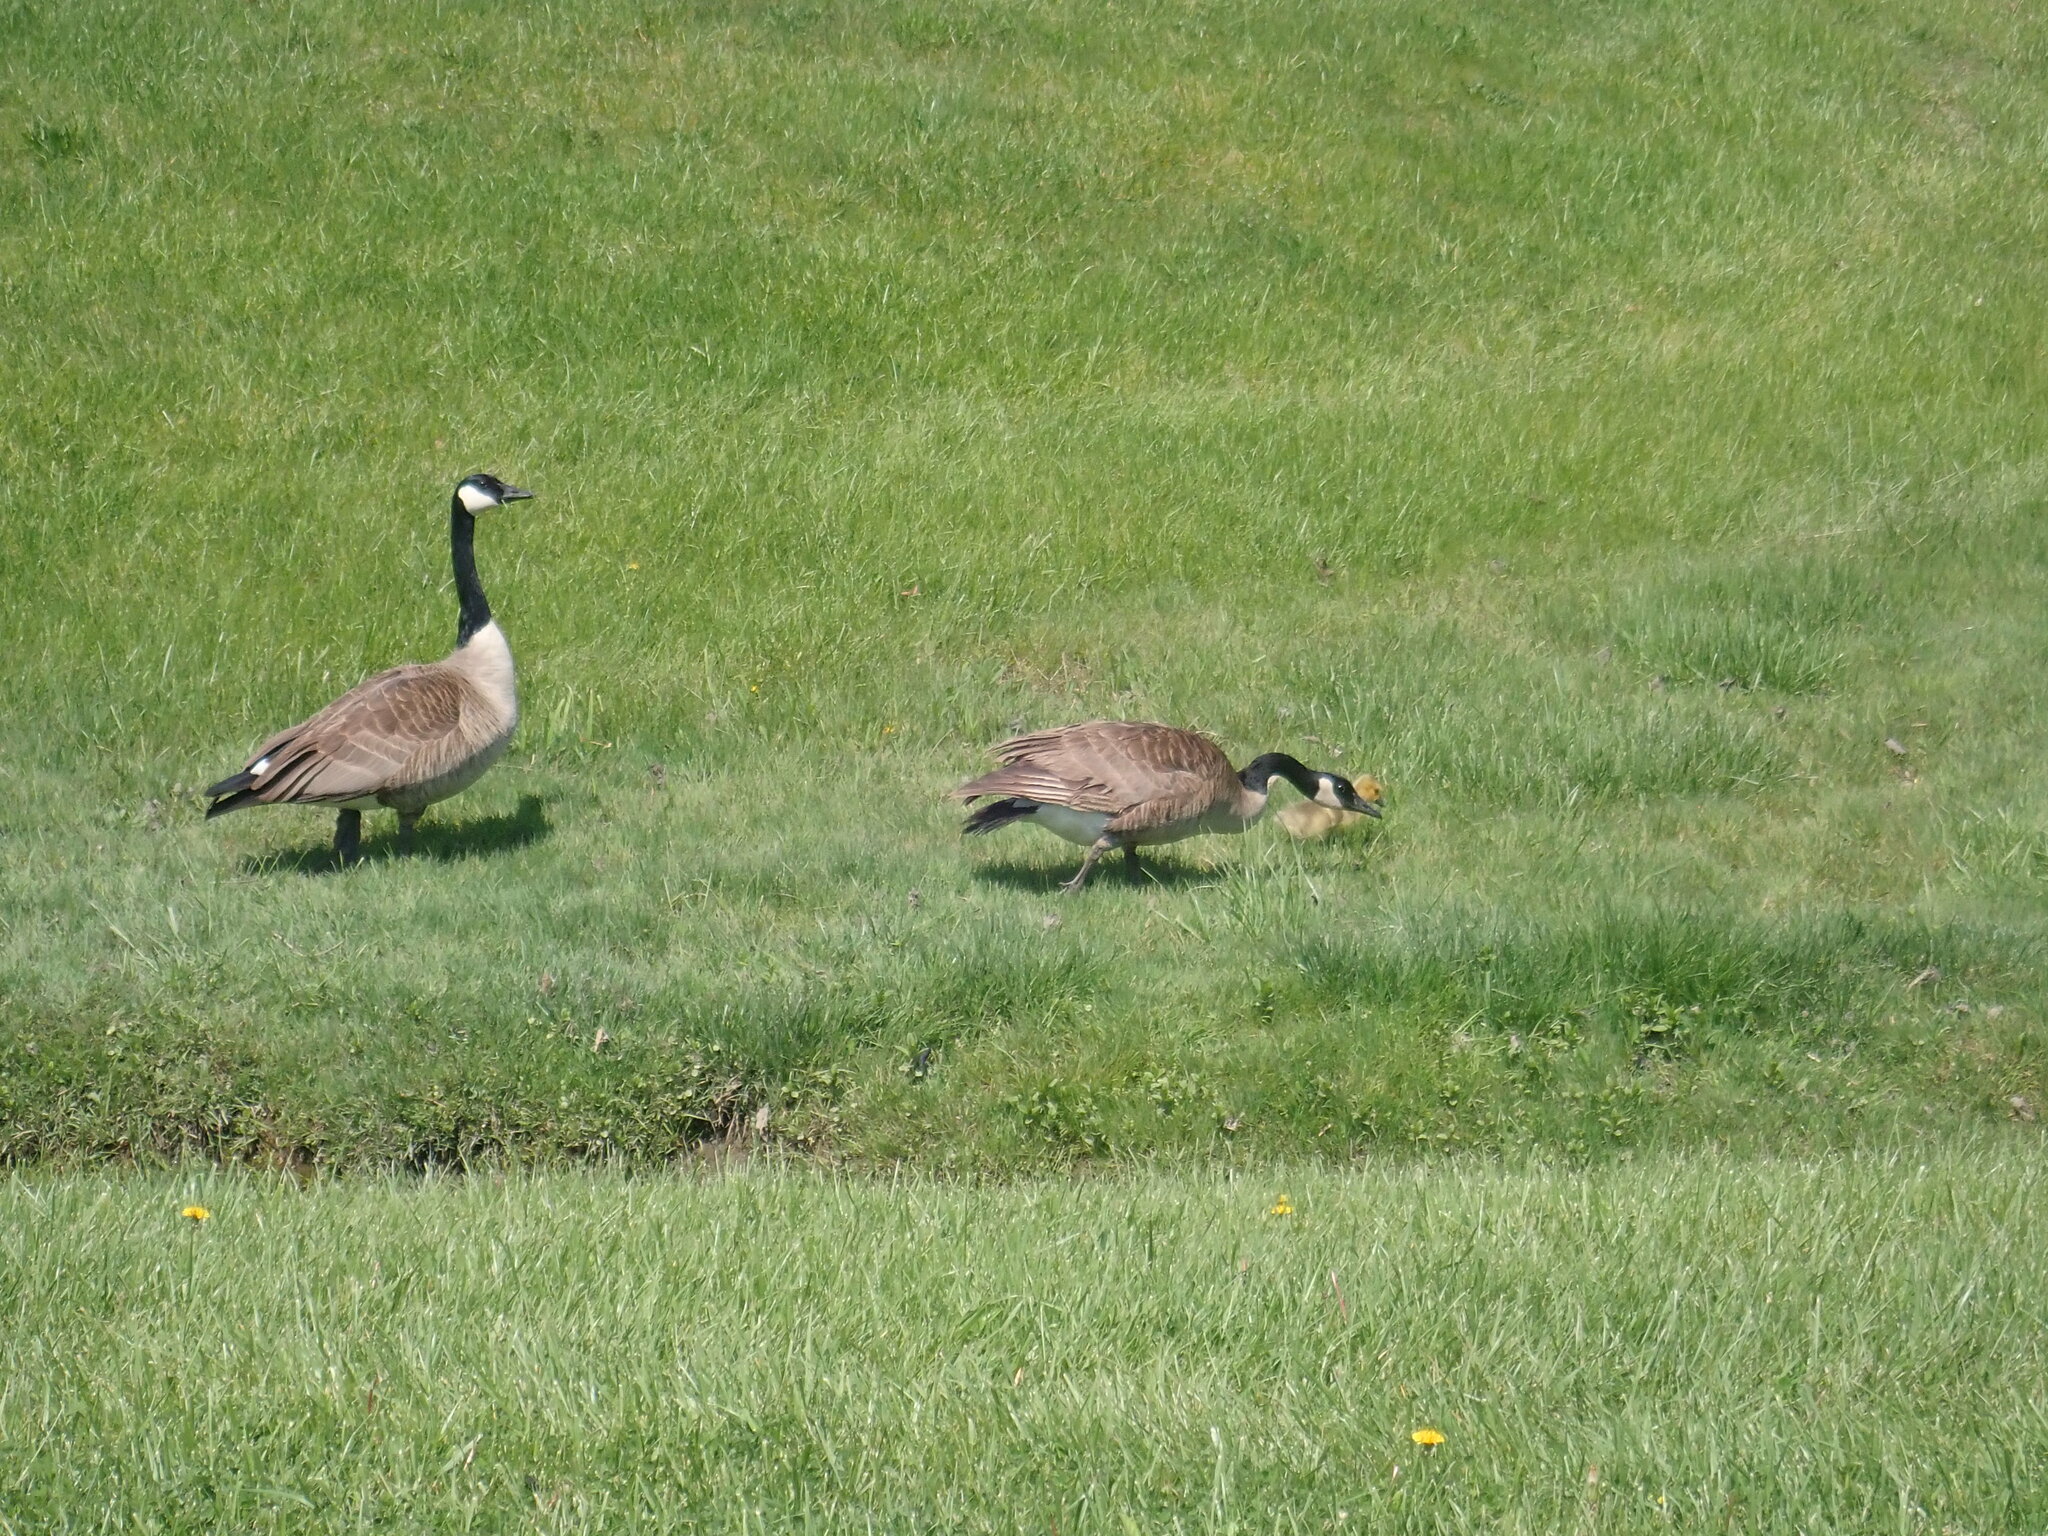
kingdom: Animalia
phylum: Chordata
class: Aves
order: Anseriformes
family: Anatidae
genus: Branta
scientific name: Branta canadensis
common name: Canada goose
